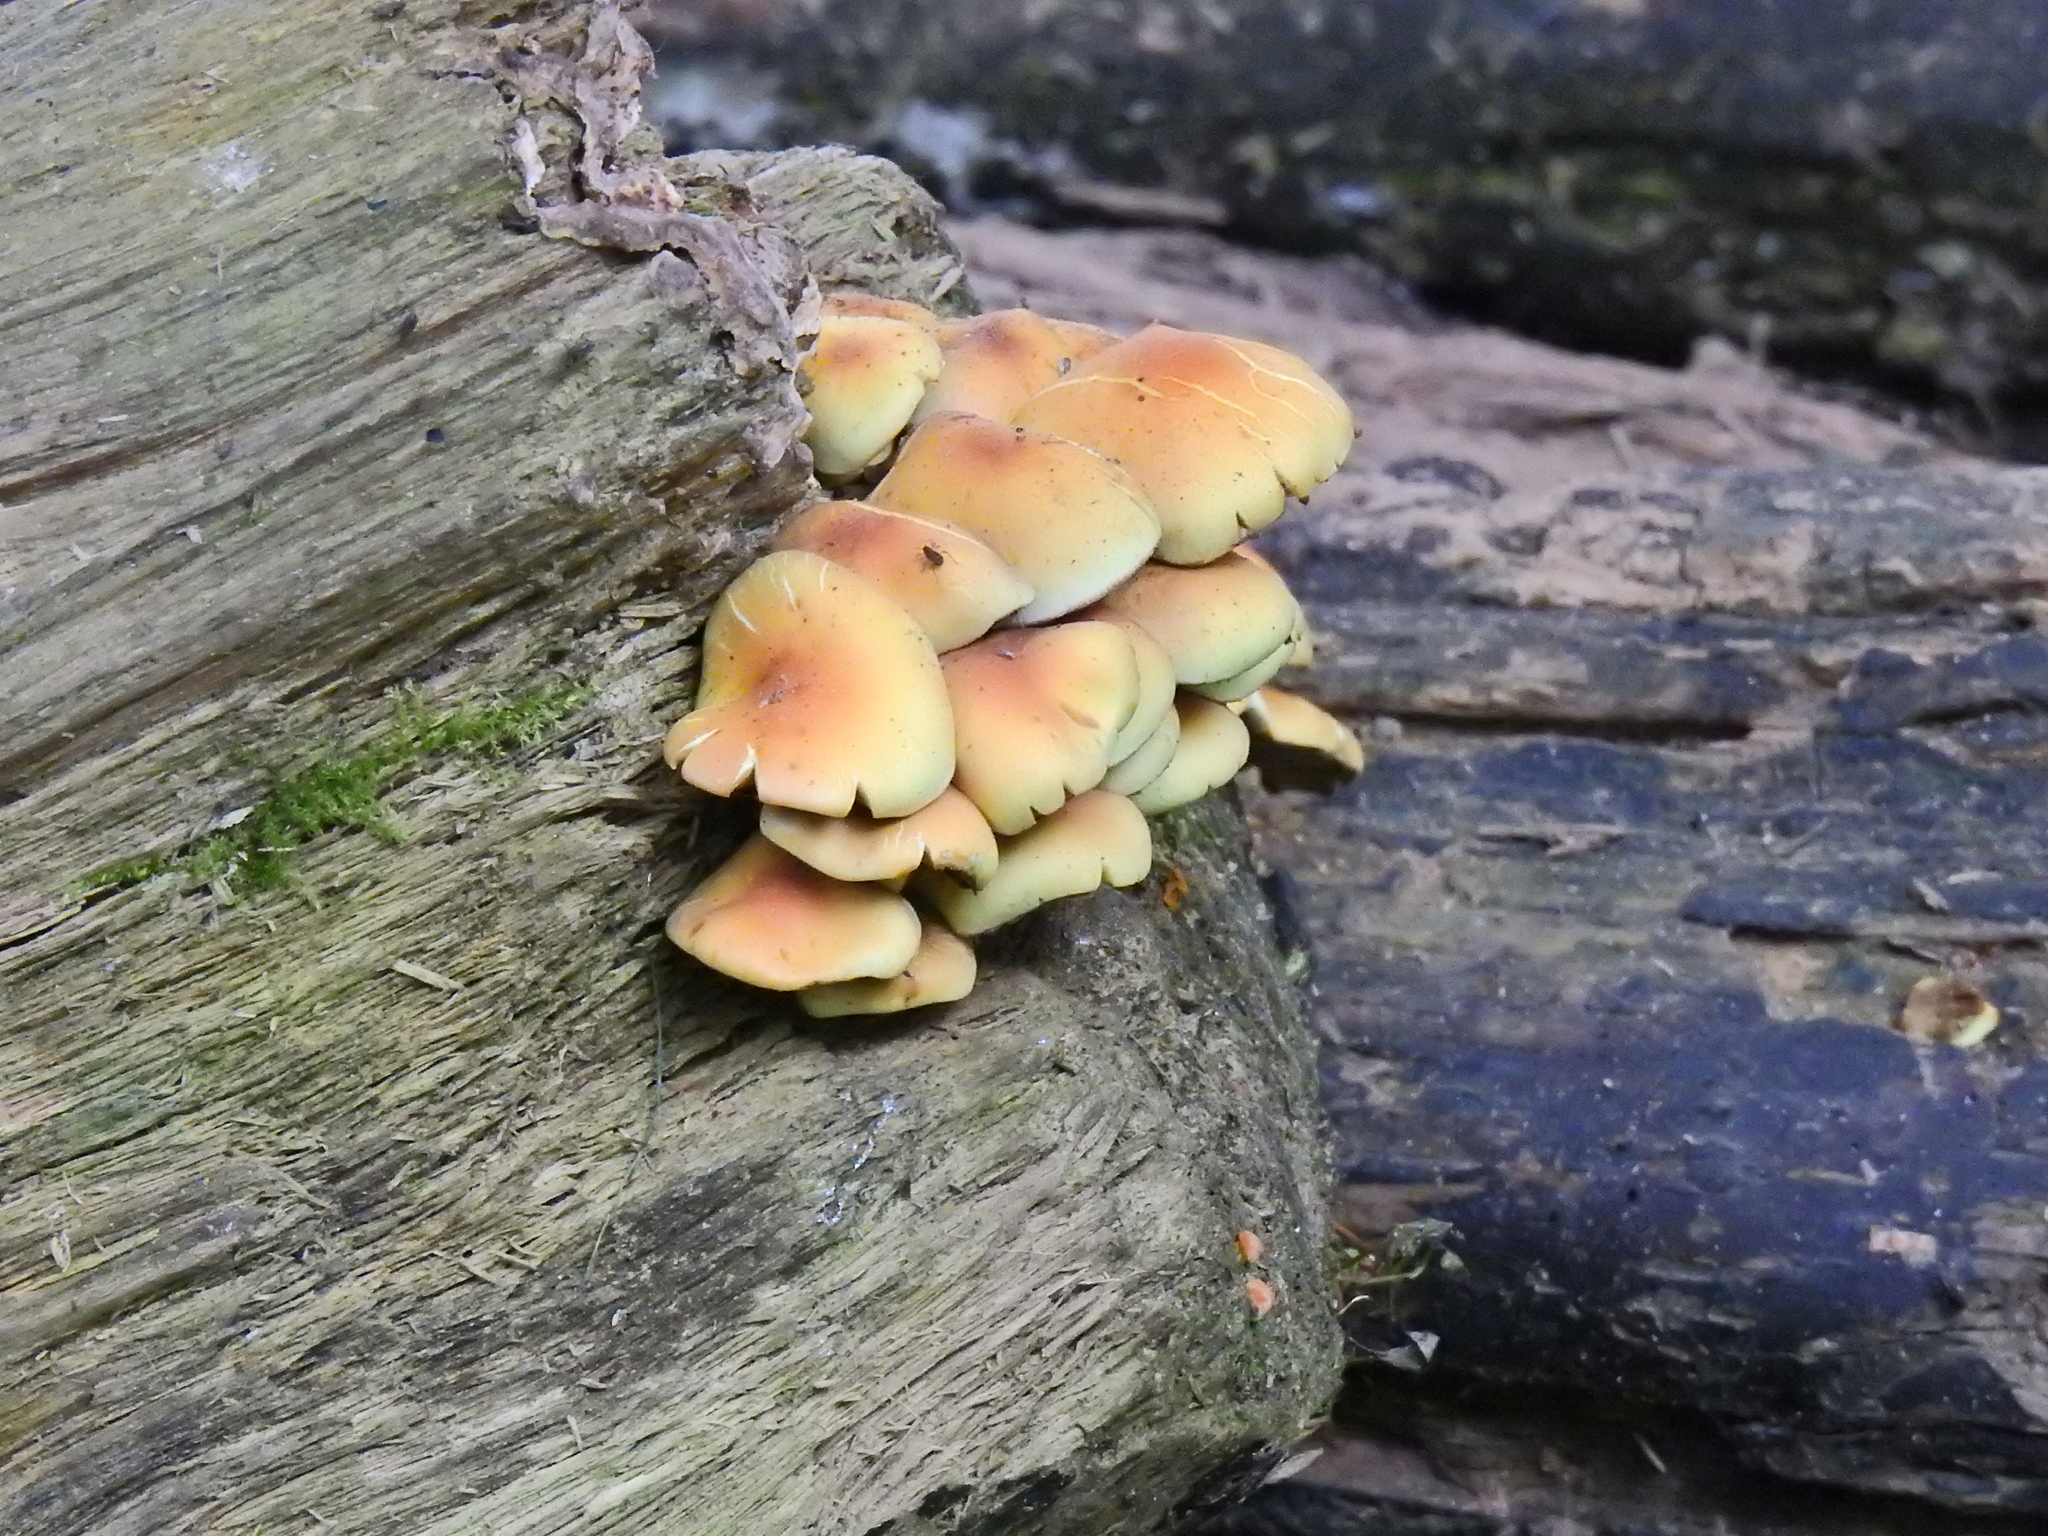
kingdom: Fungi
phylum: Basidiomycota
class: Agaricomycetes
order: Agaricales
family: Strophariaceae
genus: Hypholoma
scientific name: Hypholoma fasciculare
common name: Sulphur tuft
